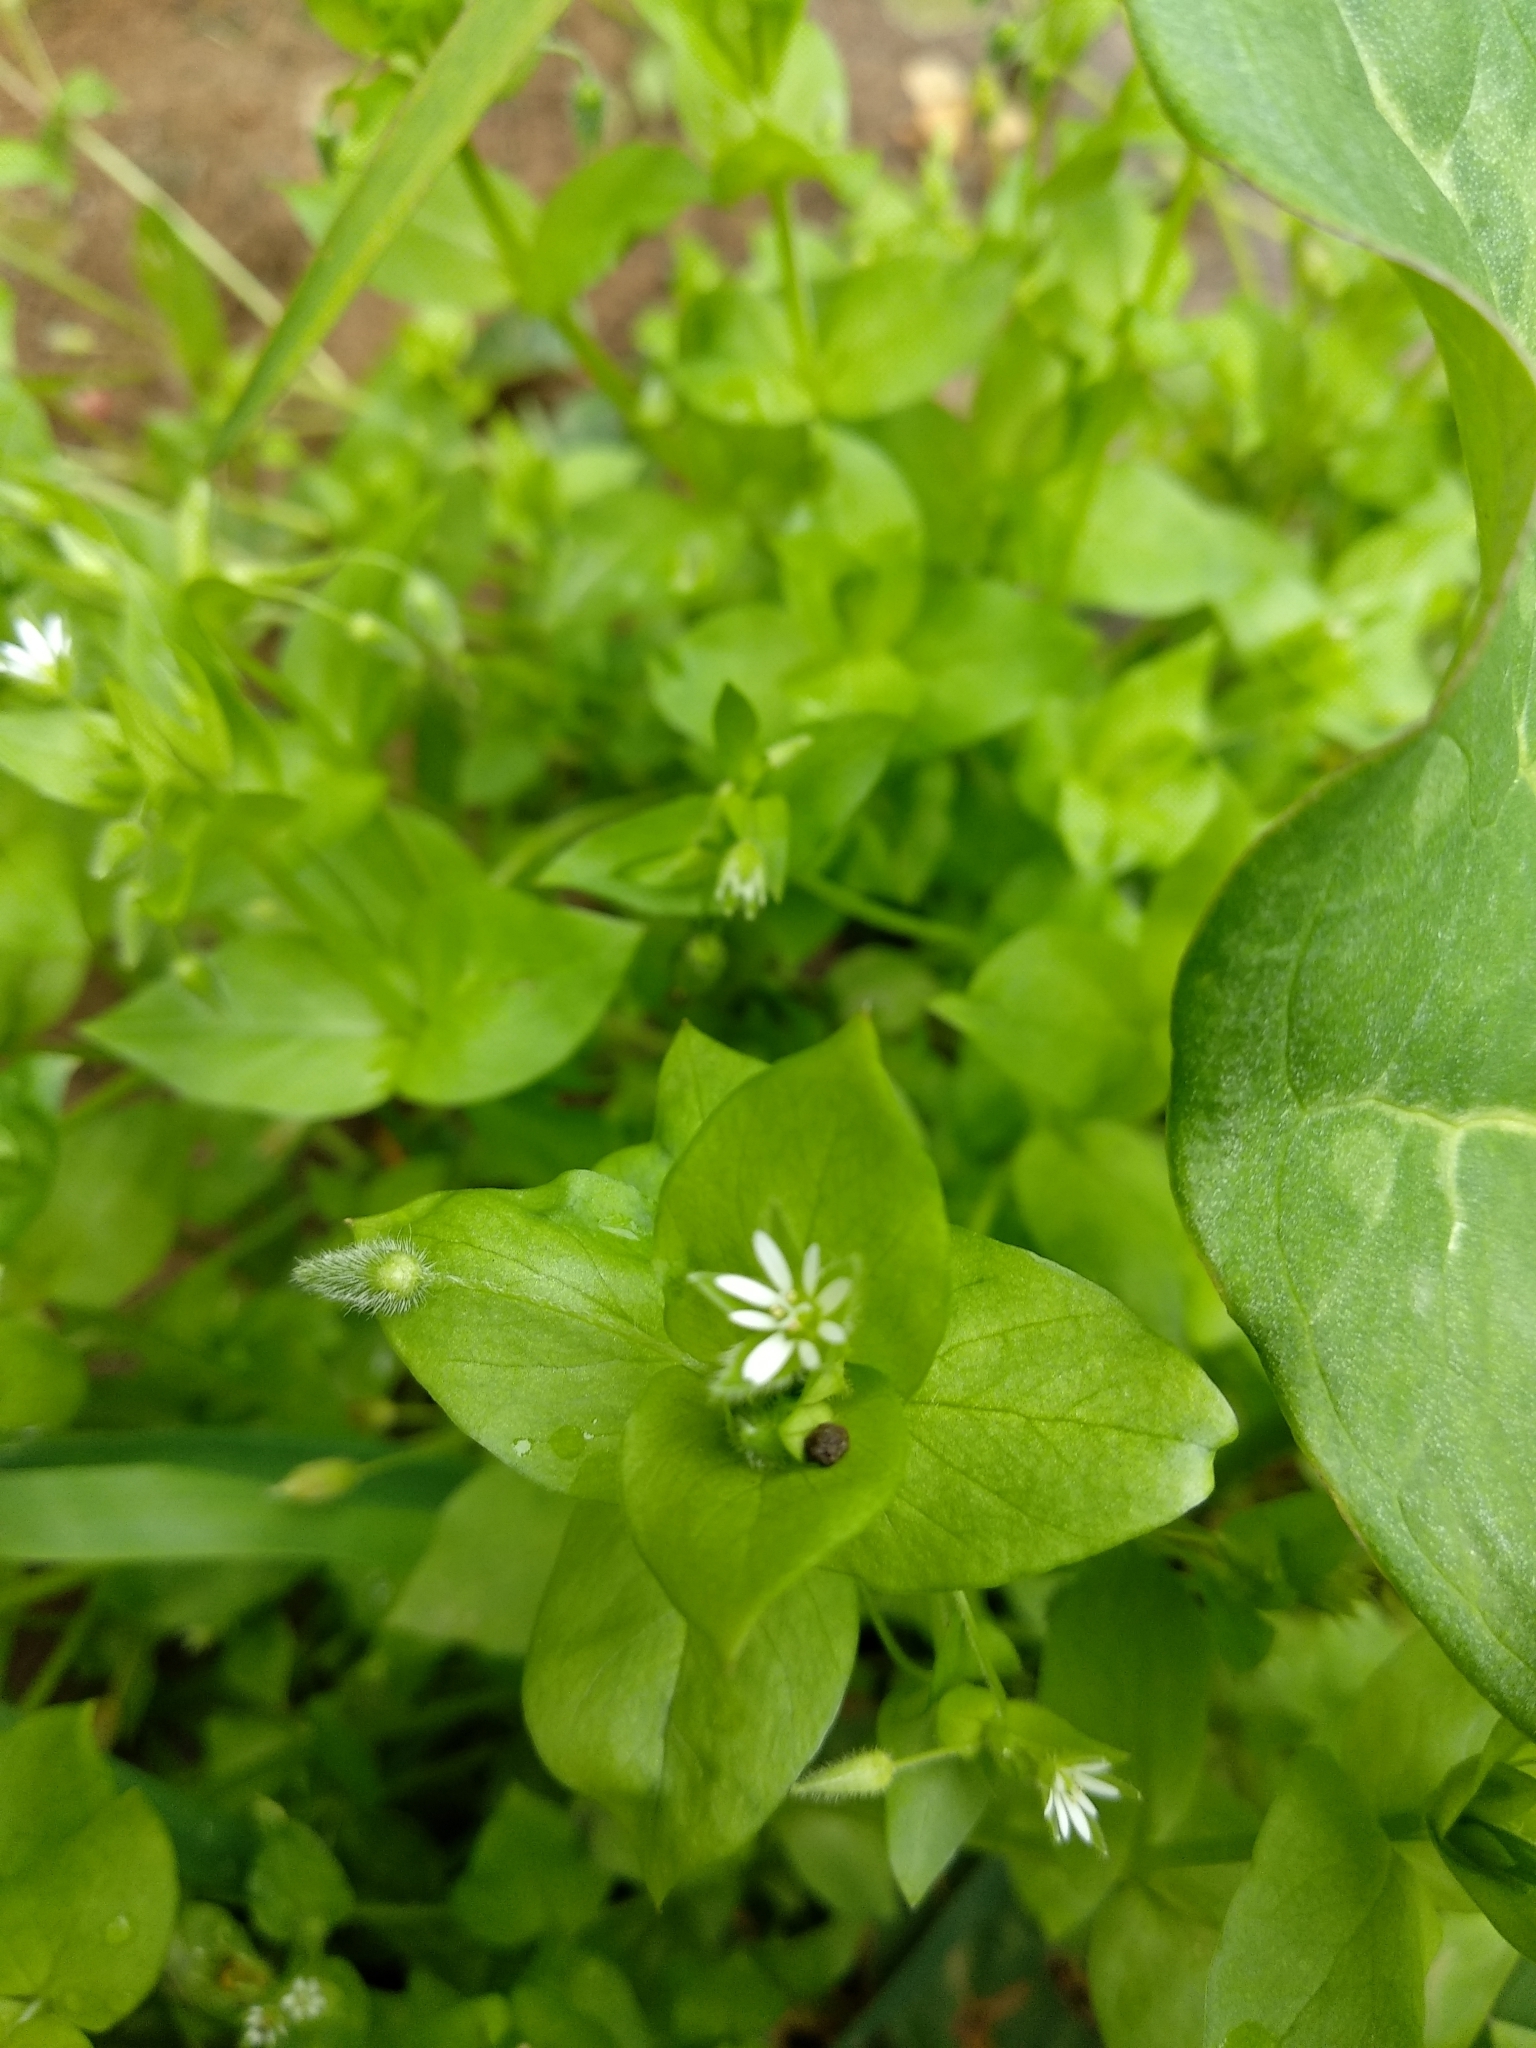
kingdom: Plantae
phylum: Tracheophyta
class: Magnoliopsida
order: Caryophyllales
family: Caryophyllaceae
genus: Stellaria
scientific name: Stellaria media
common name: Common chickweed
